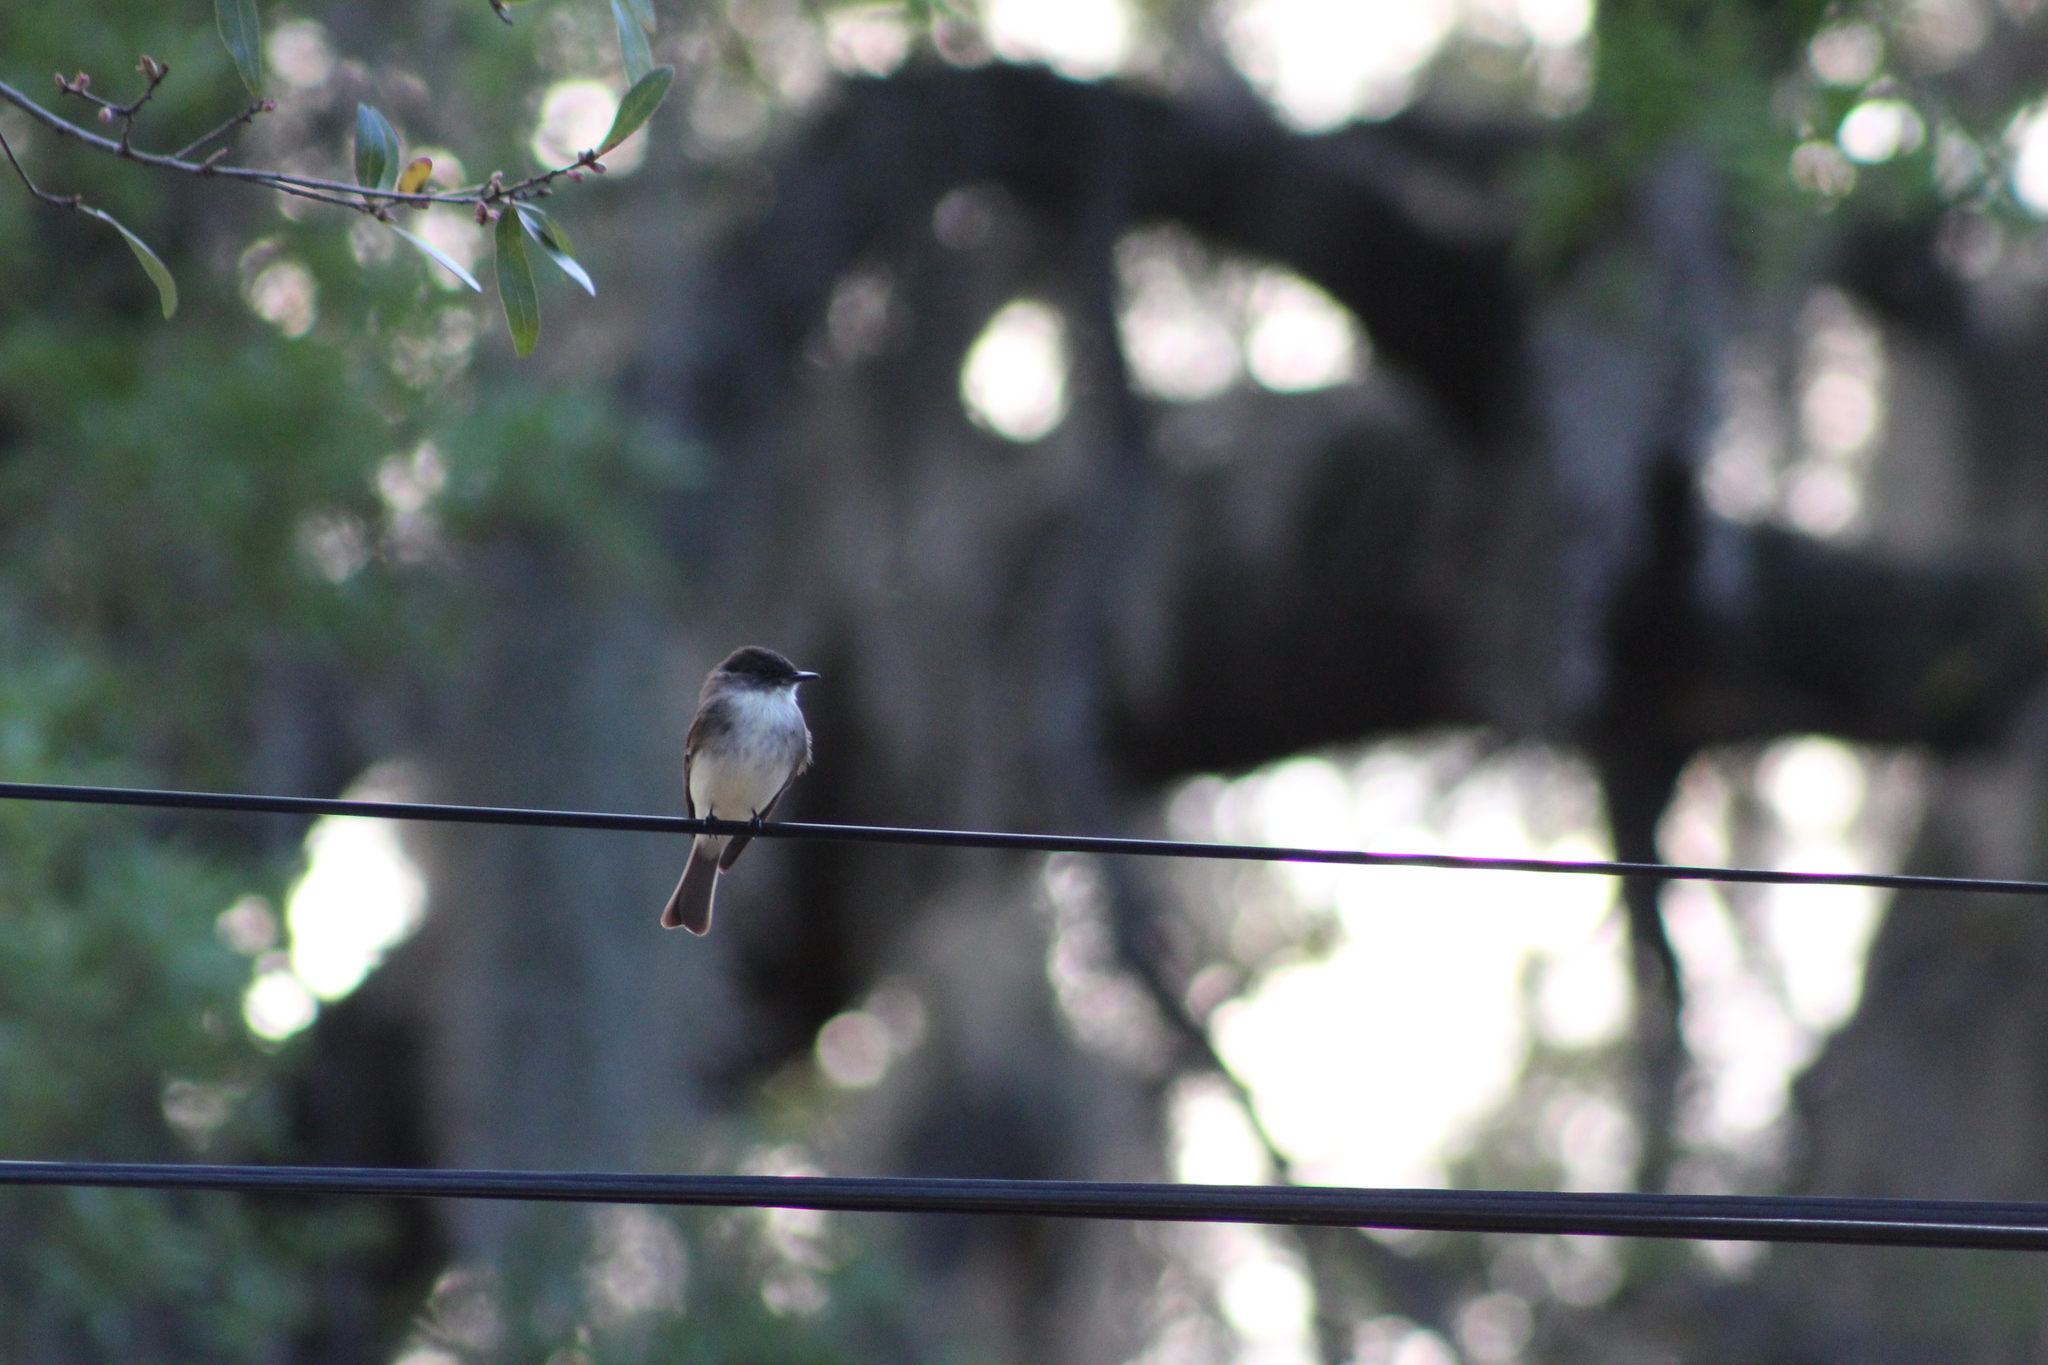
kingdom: Animalia
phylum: Chordata
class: Aves
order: Passeriformes
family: Tyrannidae
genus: Sayornis
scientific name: Sayornis phoebe
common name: Eastern phoebe
